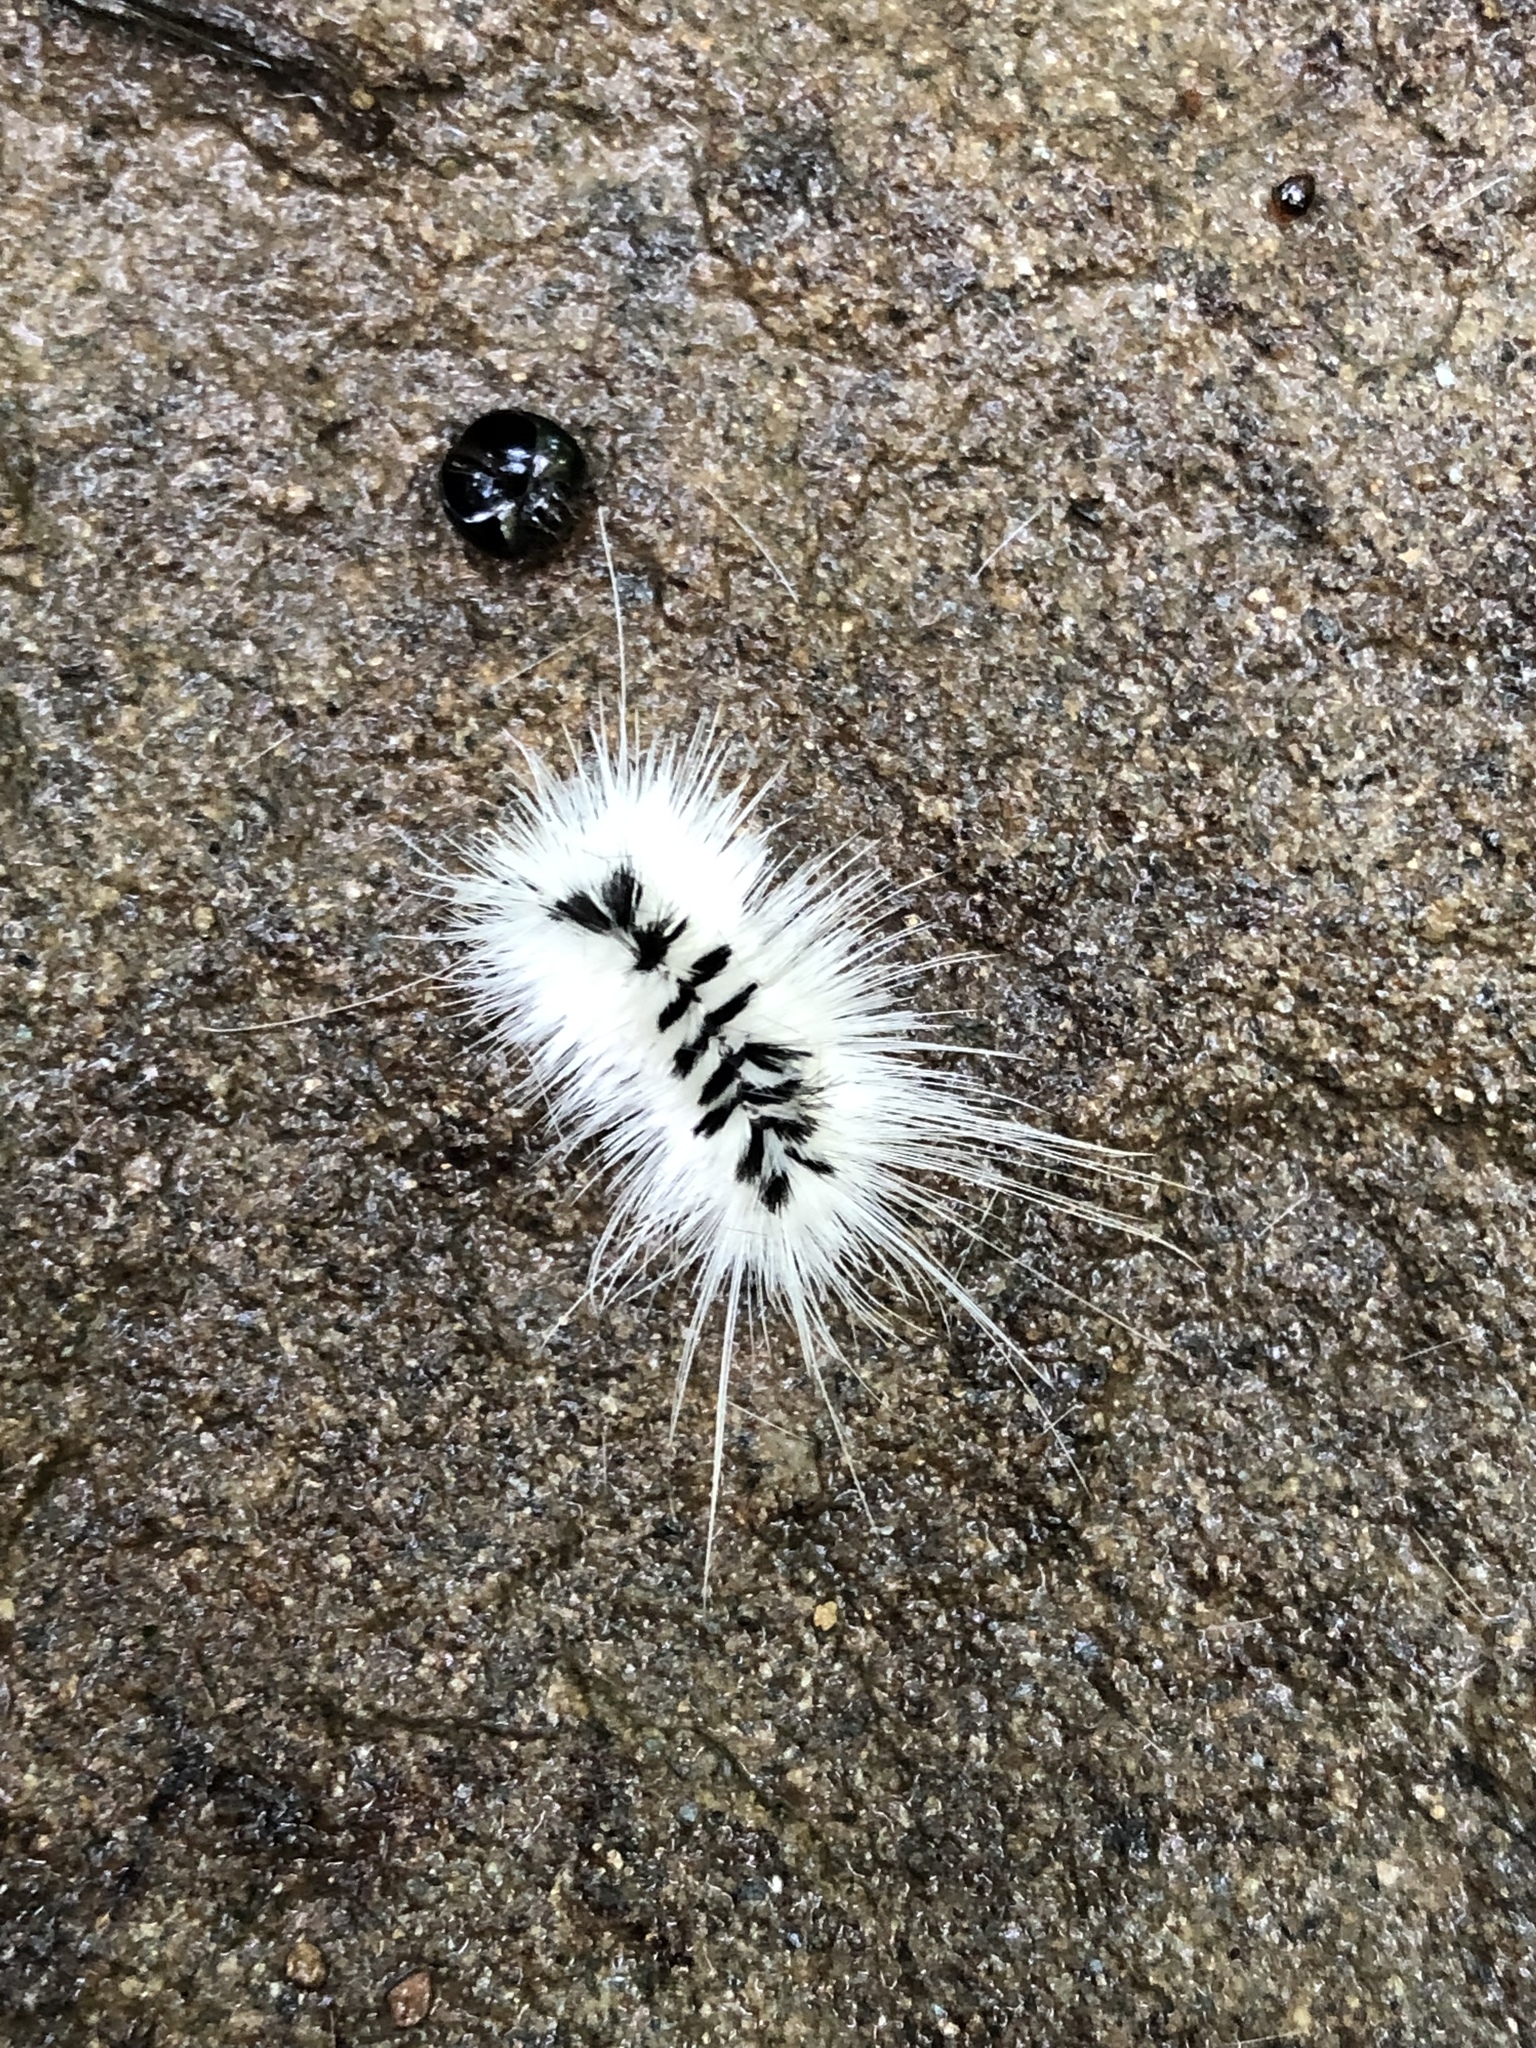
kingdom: Animalia
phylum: Arthropoda
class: Insecta
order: Lepidoptera
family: Erebidae
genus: Lophocampa
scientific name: Lophocampa caryae
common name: Hickory tussock moth
